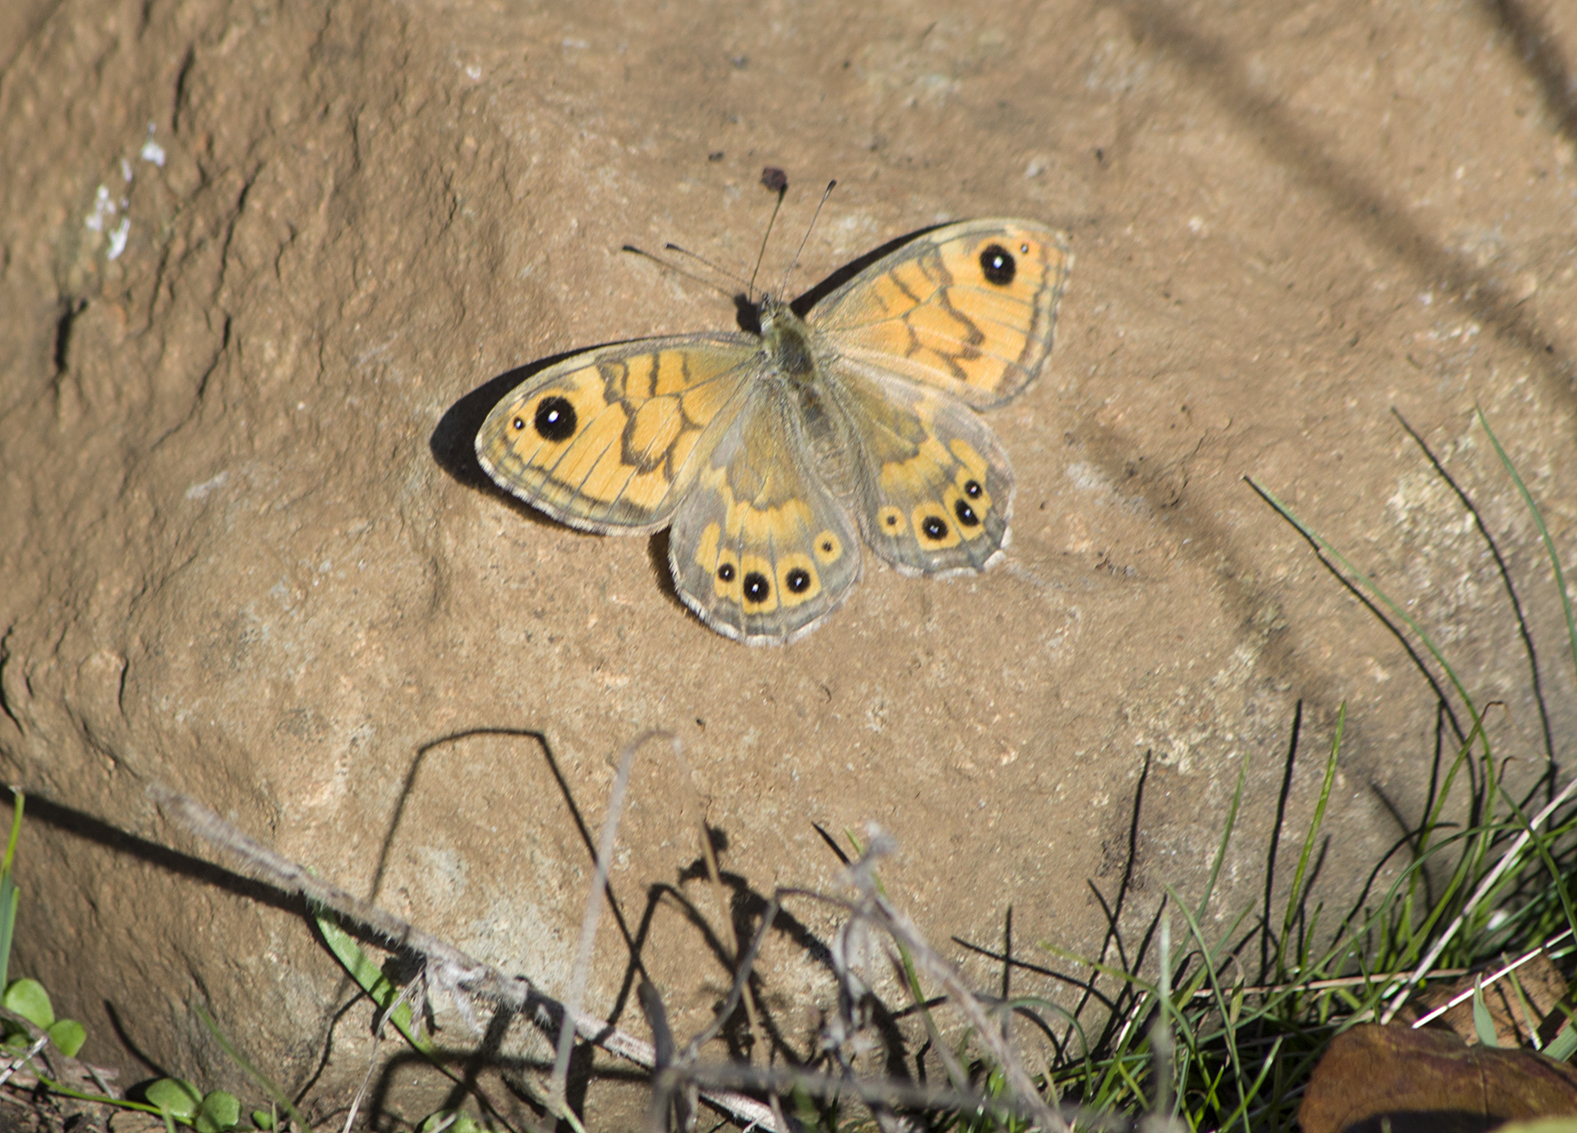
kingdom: Animalia
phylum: Arthropoda
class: Insecta
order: Lepidoptera
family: Nymphalidae
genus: Pararge
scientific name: Pararge Lasiommata megera
